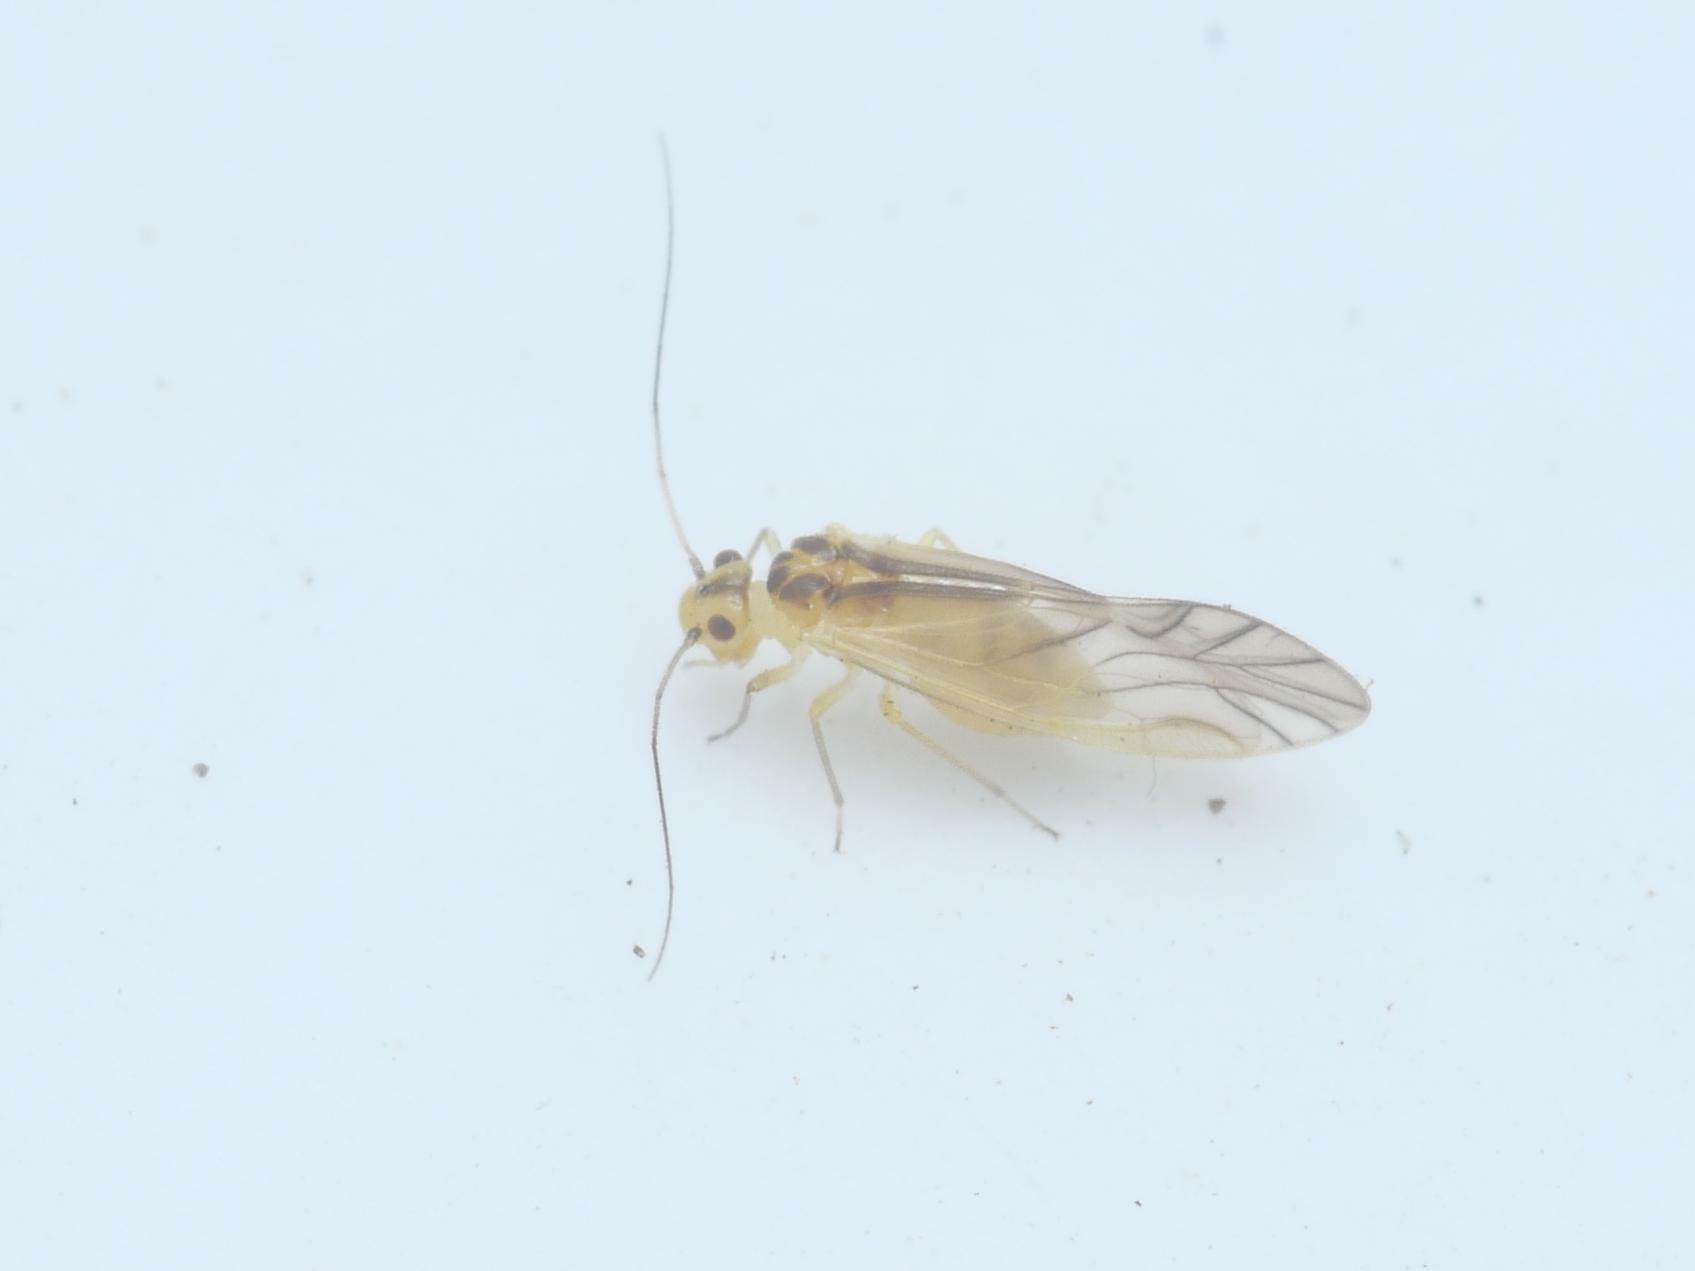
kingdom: Animalia
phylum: Arthropoda
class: Insecta
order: Psocodea
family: Caeciliusidae
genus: Valenzuela
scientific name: Valenzuela flavidus
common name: Yellow barklouse
